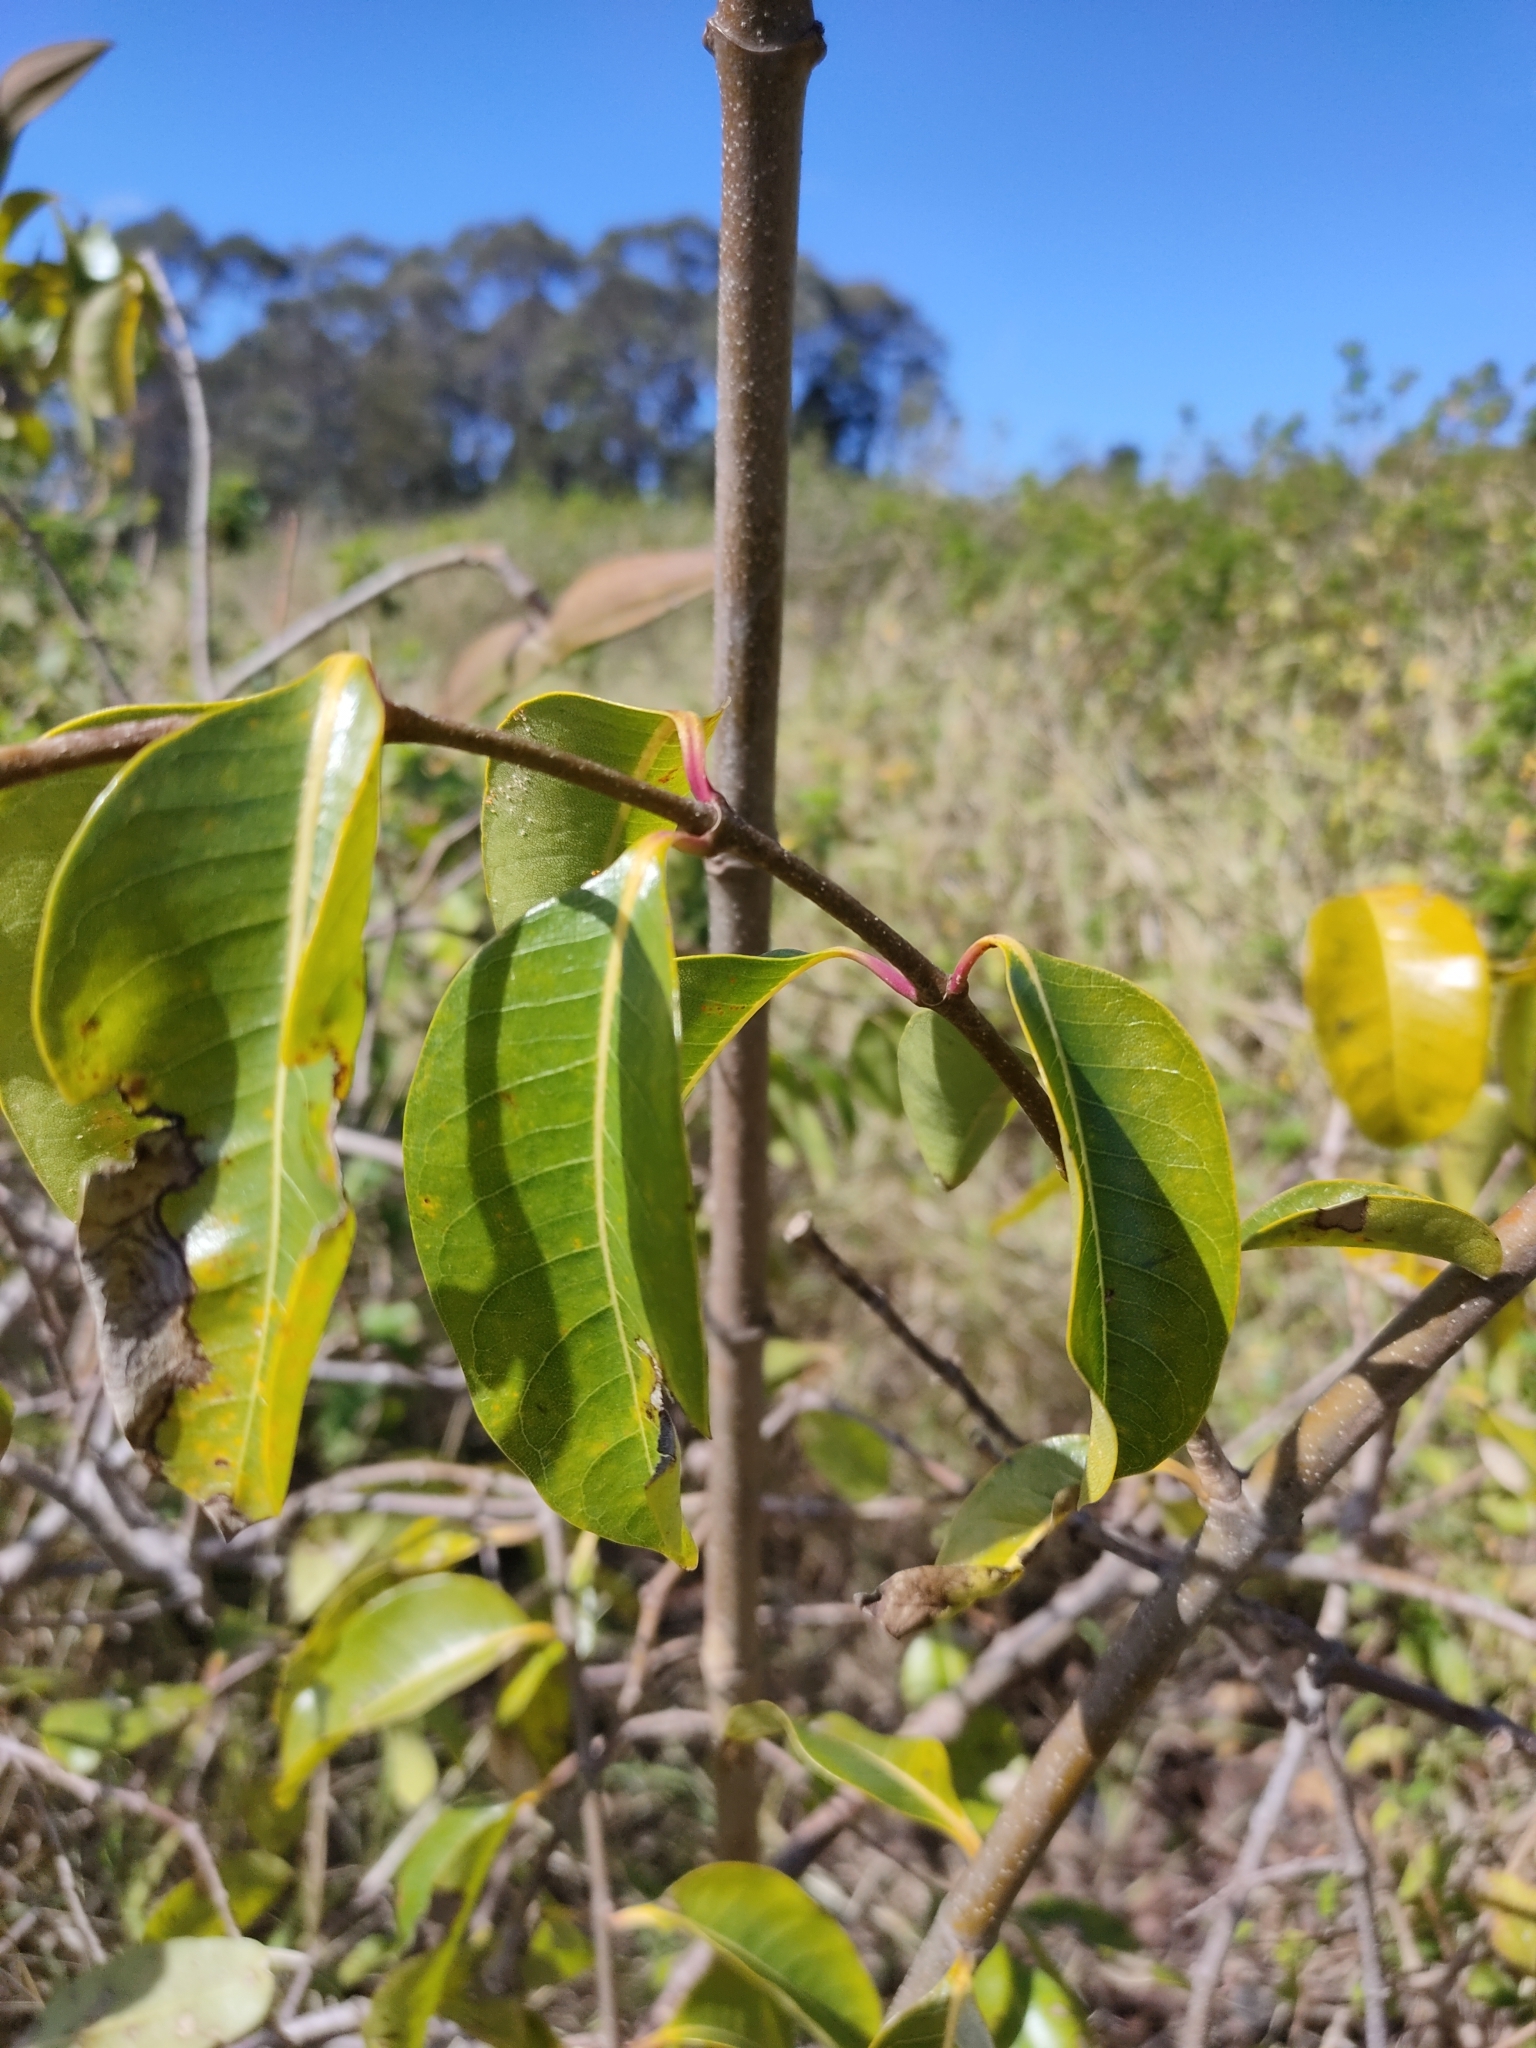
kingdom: Plantae
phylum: Tracheophyta
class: Magnoliopsida
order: Gentianales
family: Apocynaceae
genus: Cryptostegia
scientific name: Cryptostegia grandiflora
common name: Palay rubbervine
